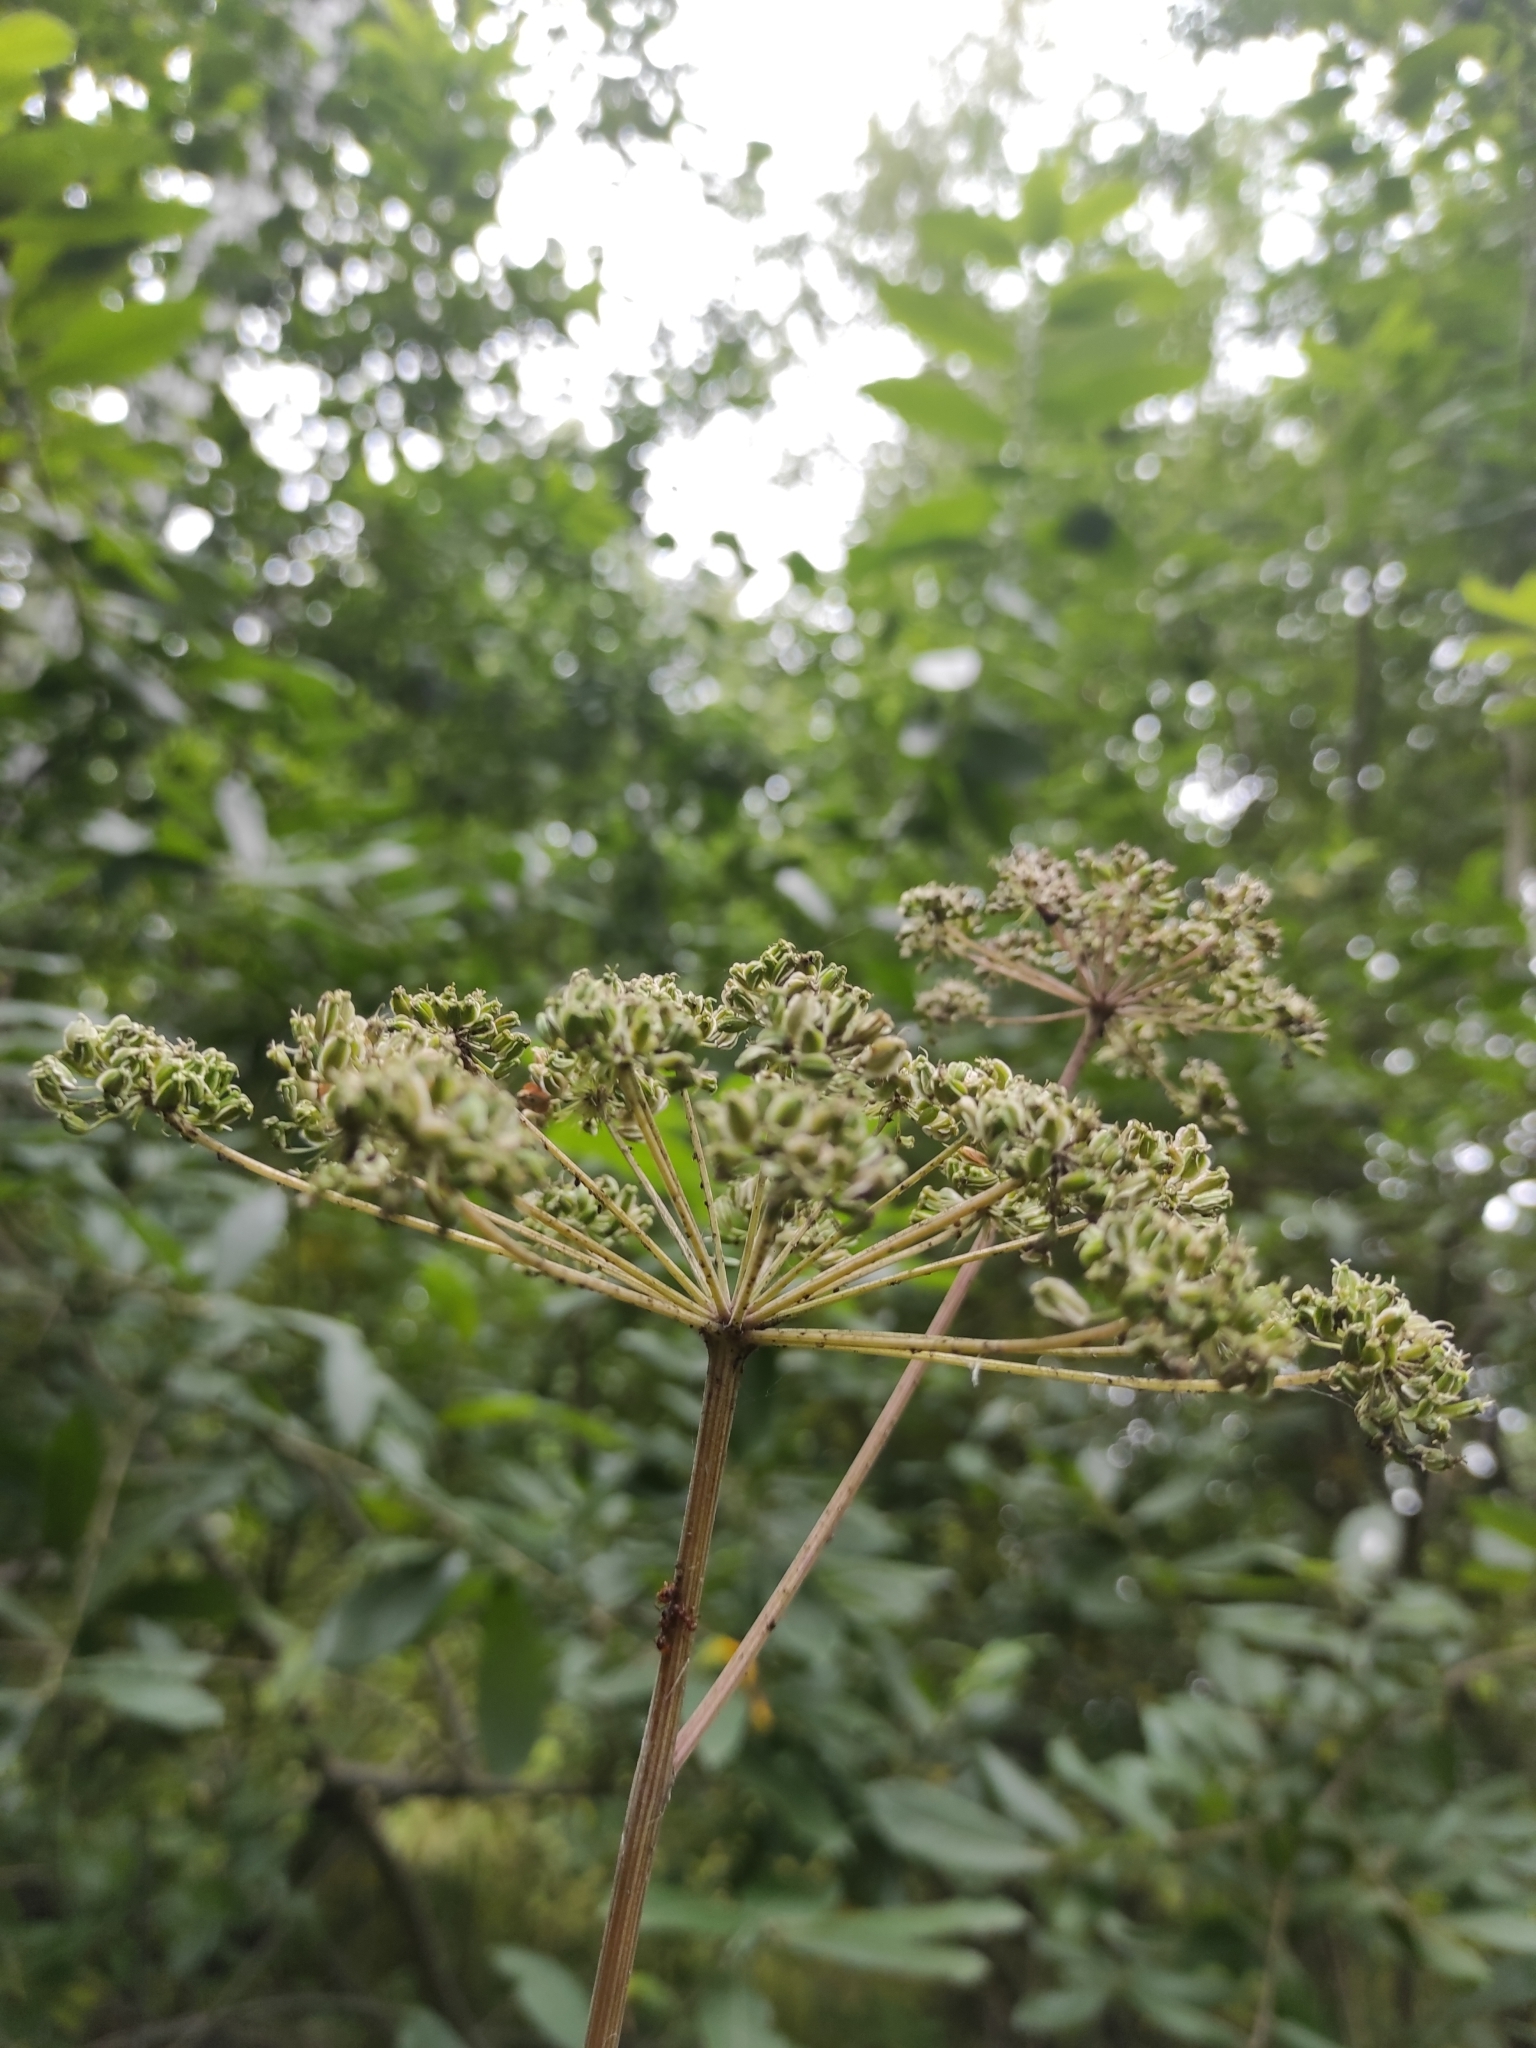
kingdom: Plantae
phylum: Tracheophyta
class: Magnoliopsida
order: Apiales
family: Apiaceae
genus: Angelica
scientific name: Angelica sylvestris
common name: Wild angelica
